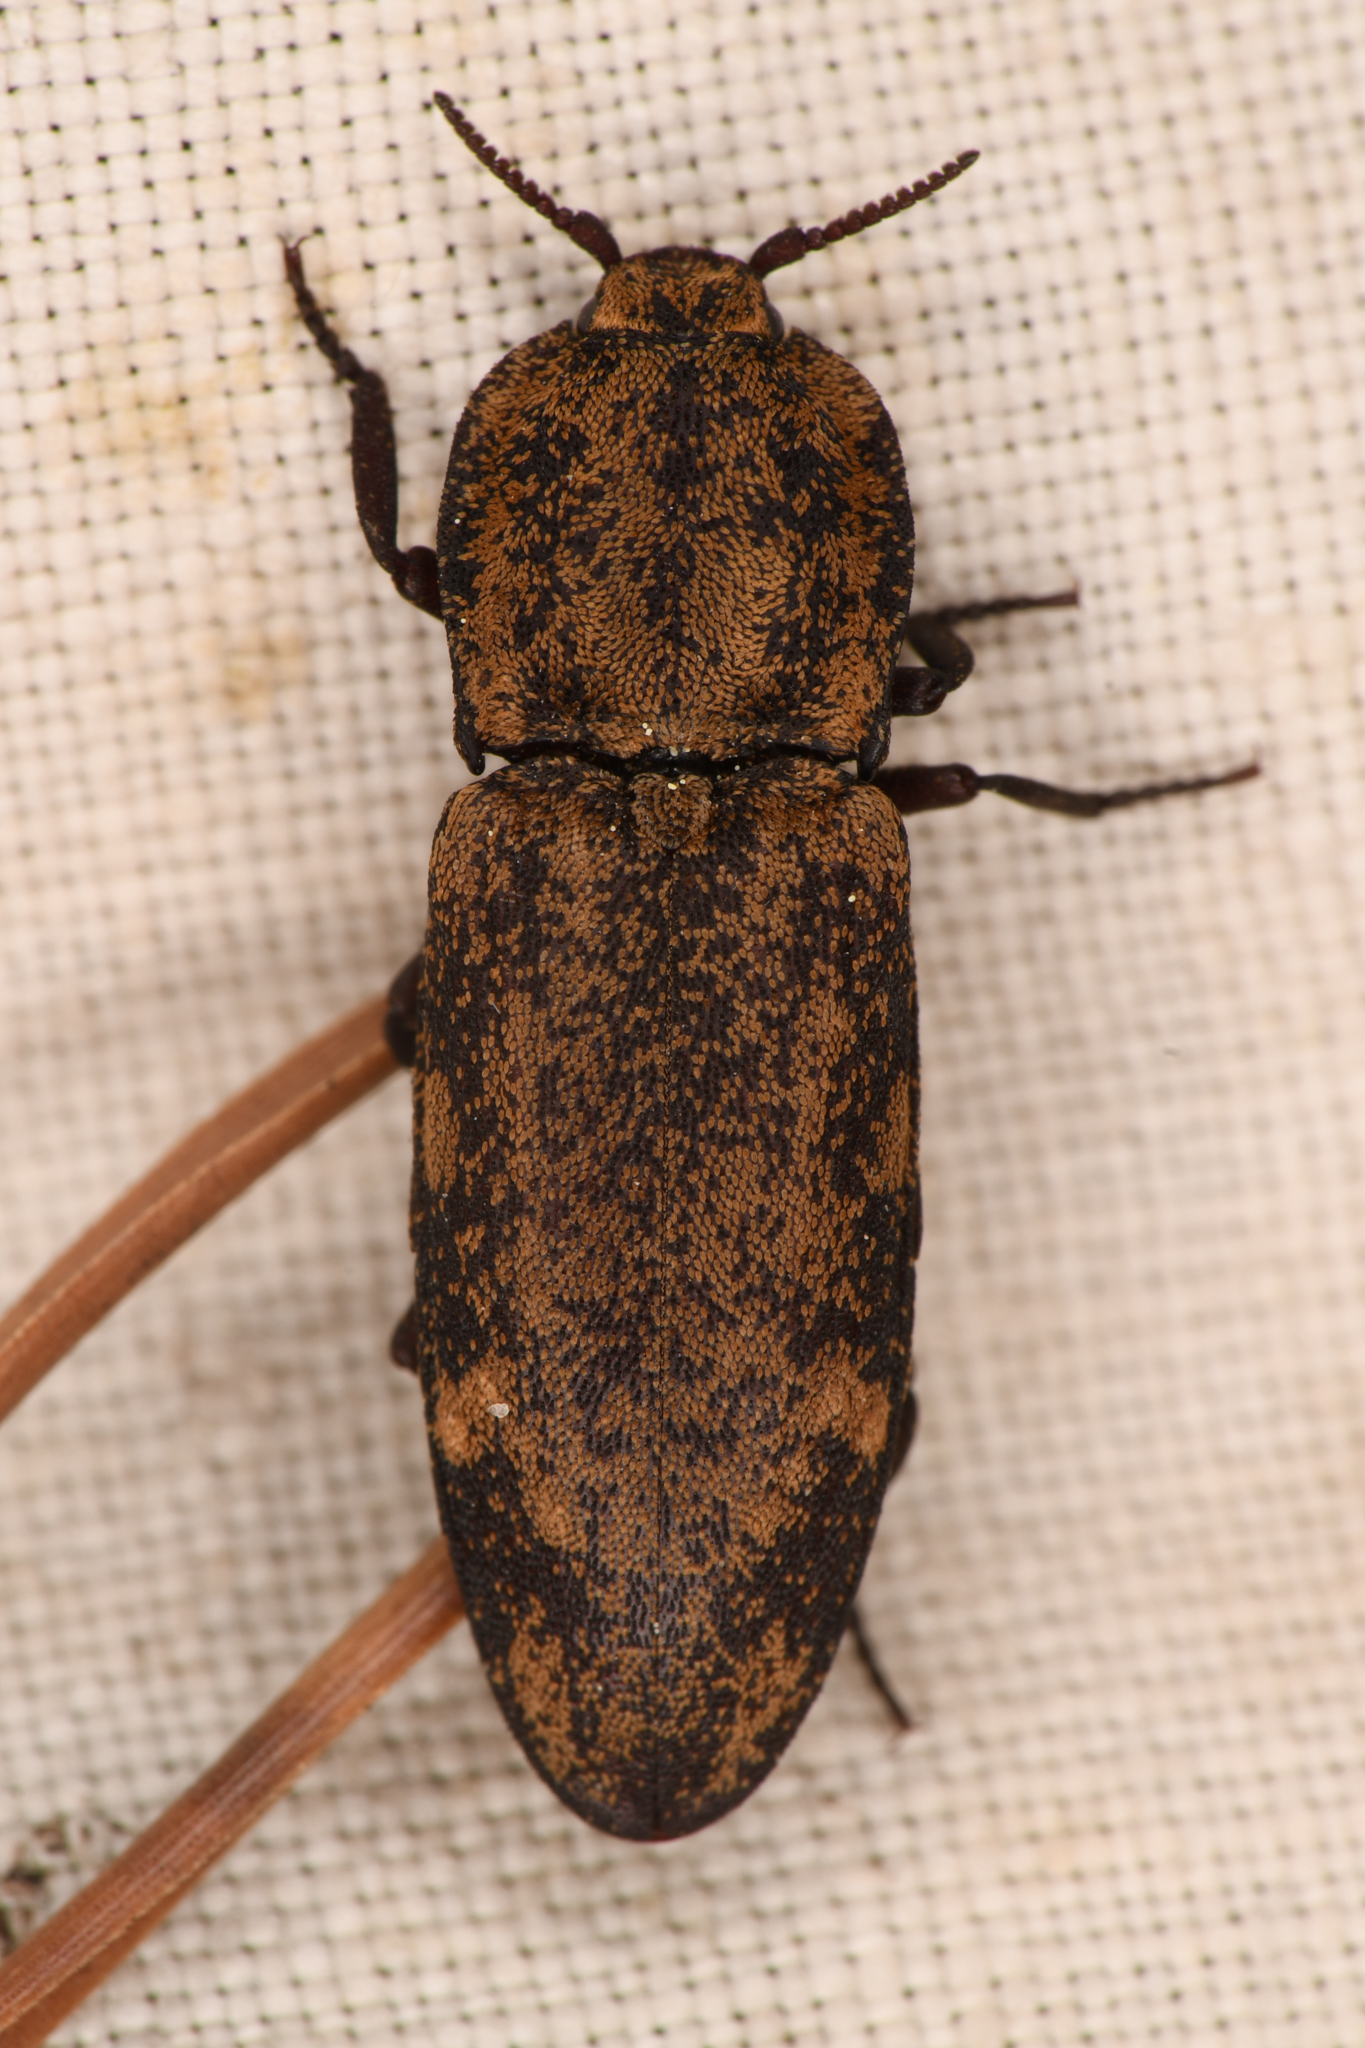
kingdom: Animalia
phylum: Arthropoda
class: Insecta
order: Coleoptera
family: Elateridae
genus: Danosoma
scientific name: Danosoma brevicorne
